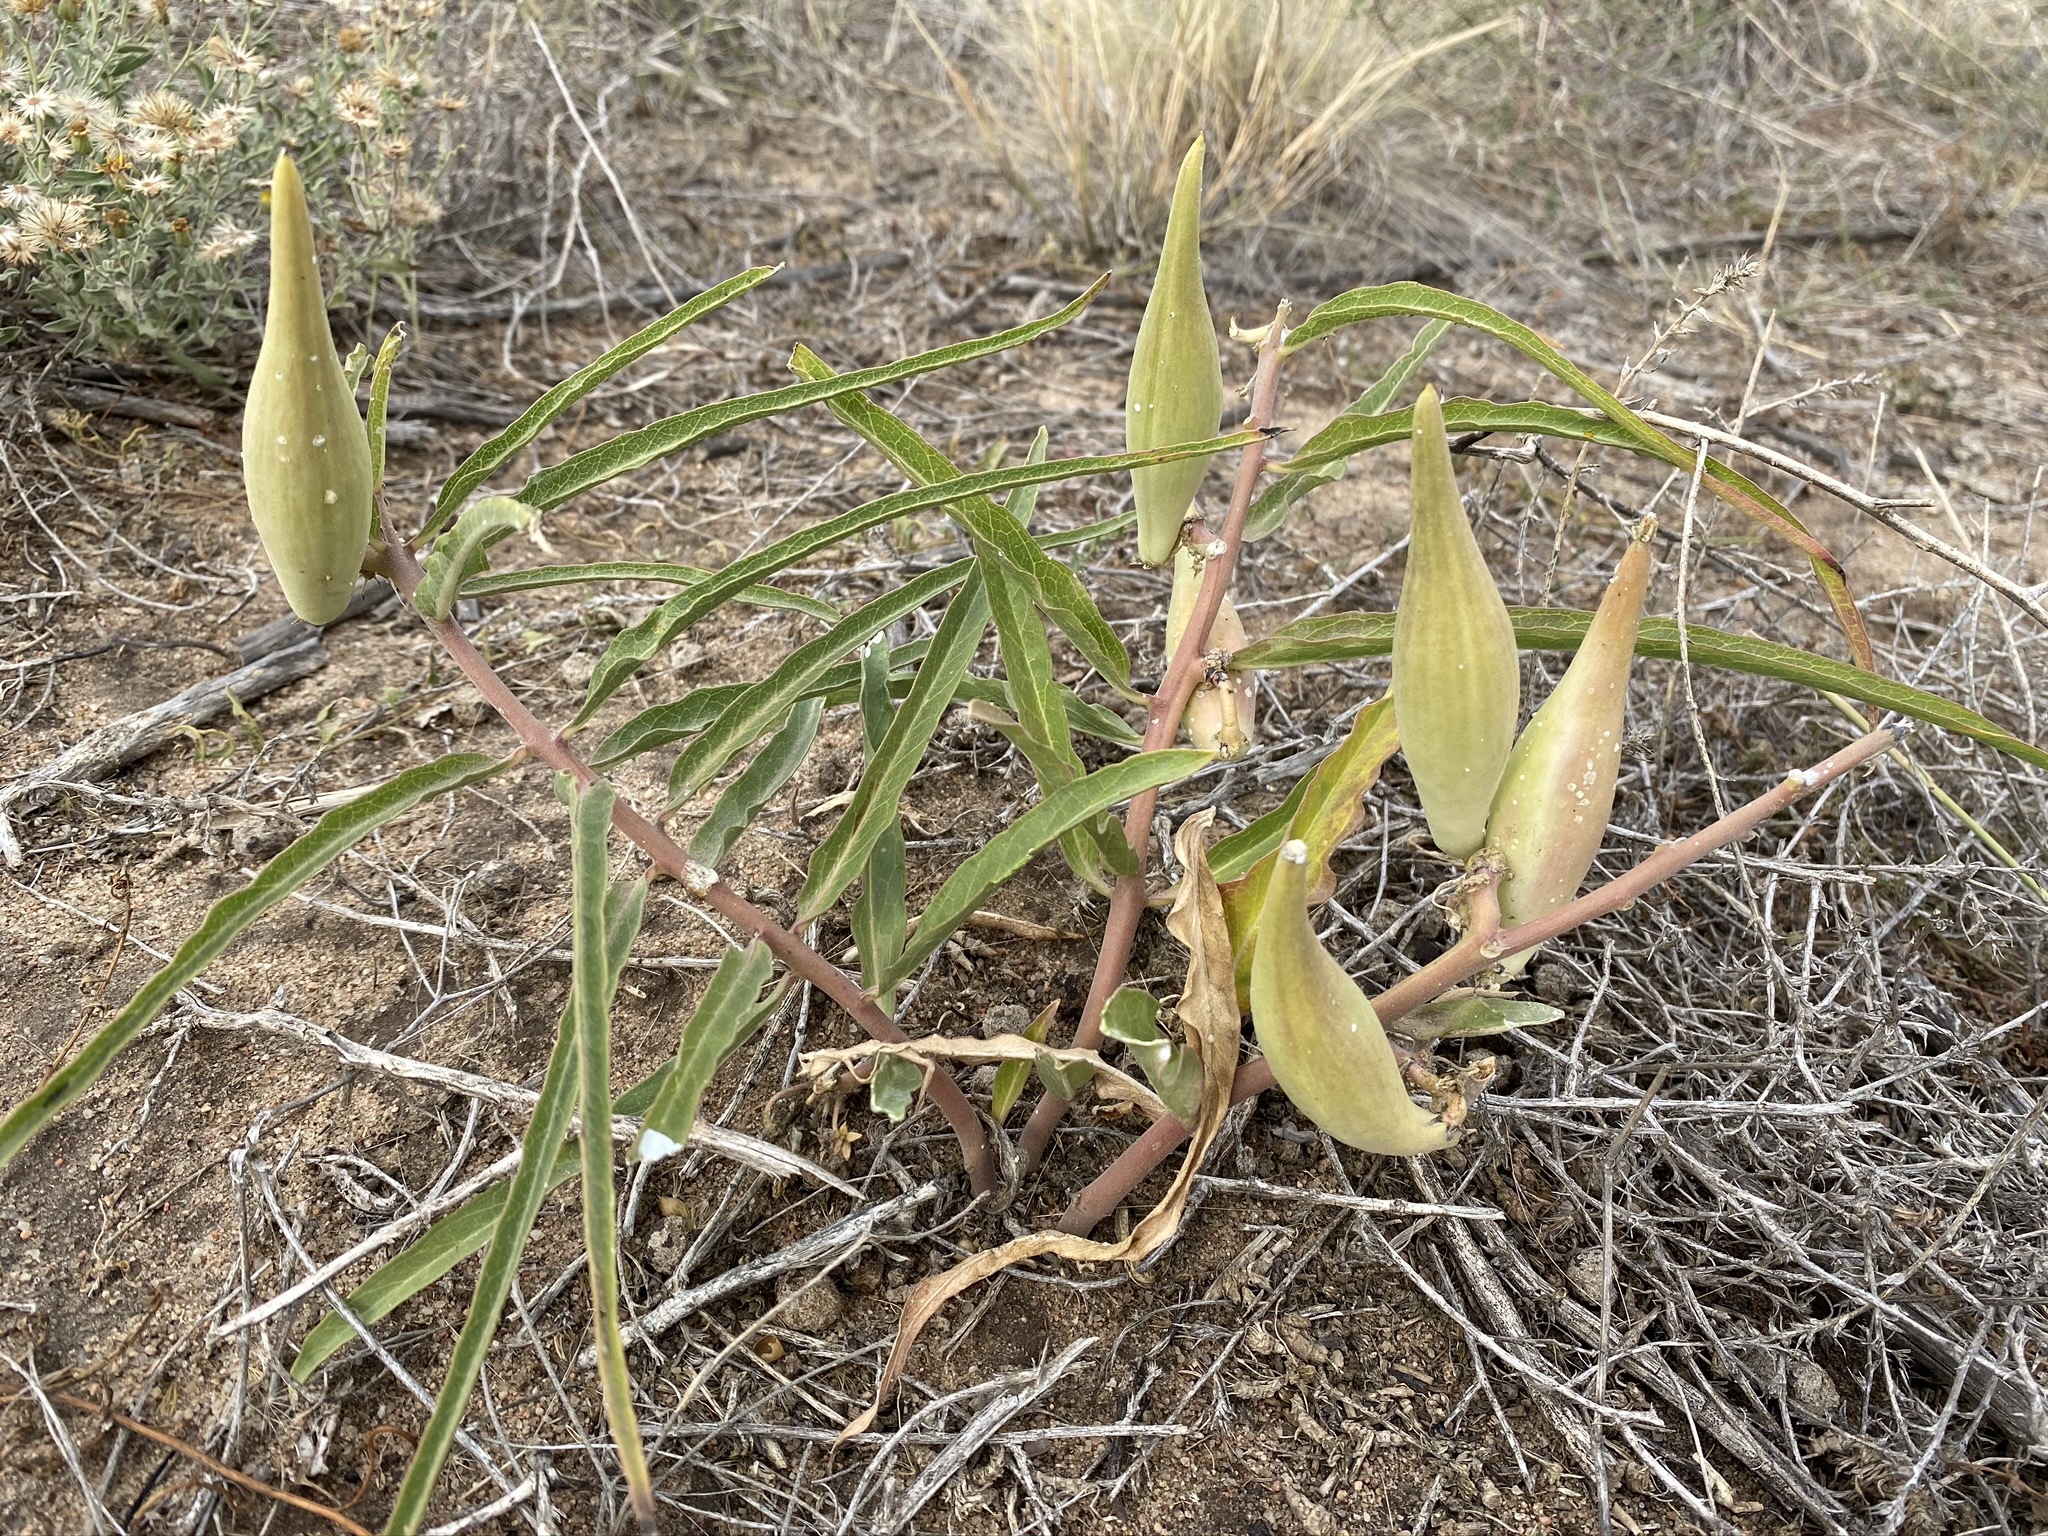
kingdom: Plantae
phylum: Tracheophyta
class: Magnoliopsida
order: Gentianales
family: Apocynaceae
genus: Asclepias
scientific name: Asclepias viridiflora
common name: Green comet milkweed
